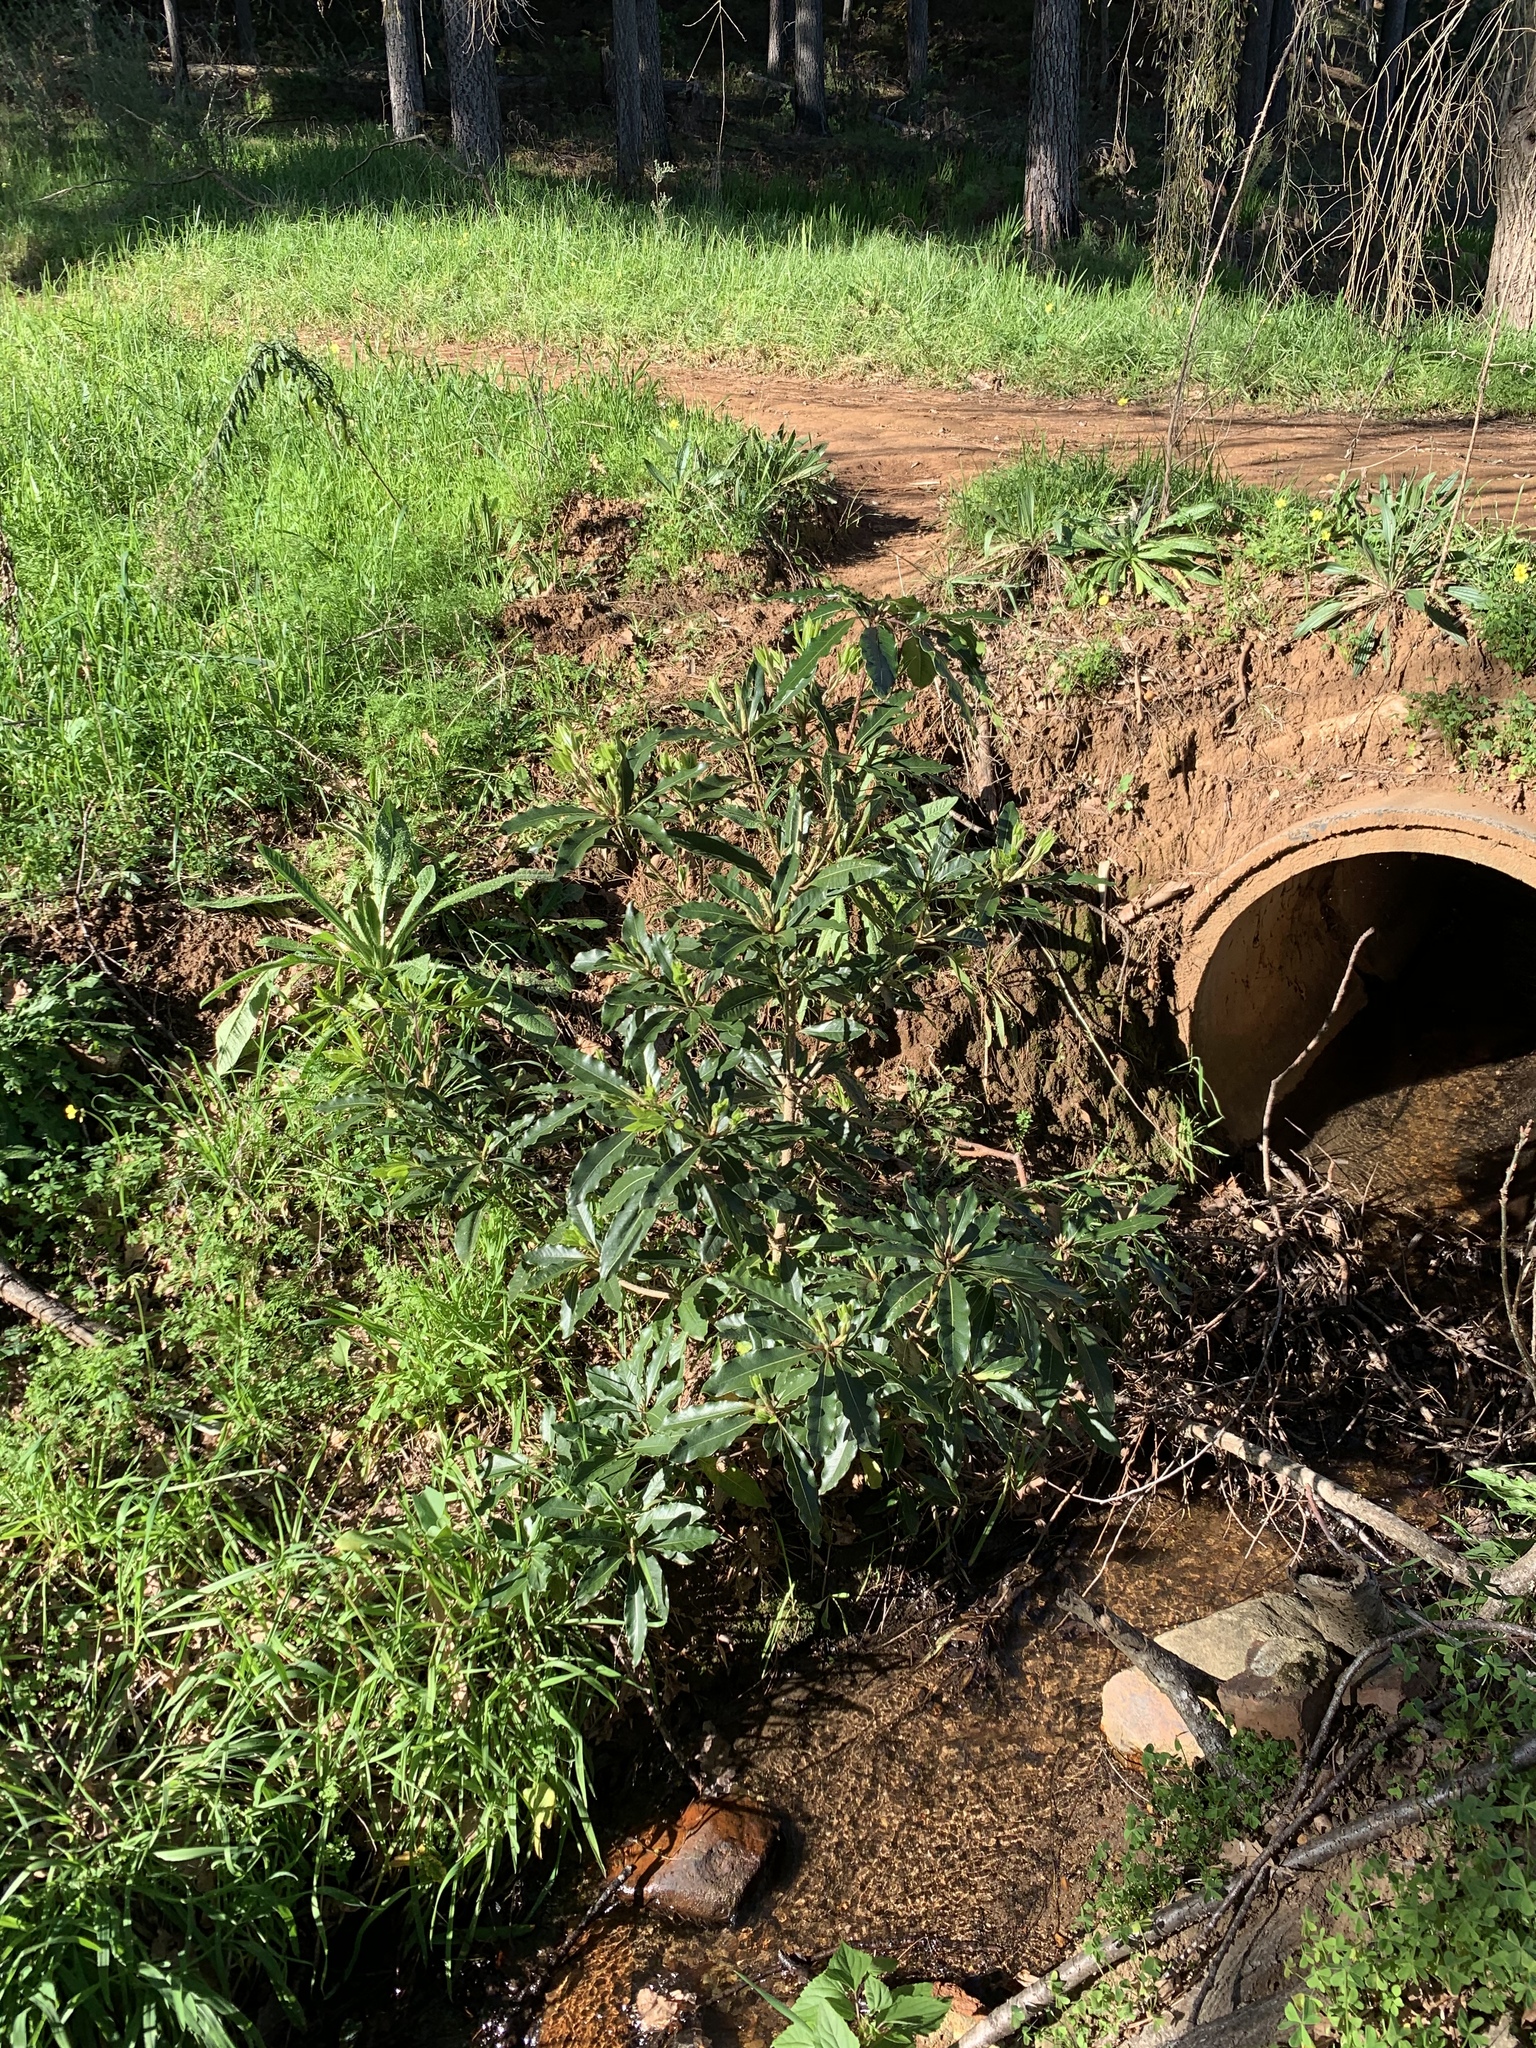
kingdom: Plantae
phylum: Tracheophyta
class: Magnoliopsida
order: Apiales
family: Pittosporaceae
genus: Pittosporum
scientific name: Pittosporum undulatum
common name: Australian cheesewood
